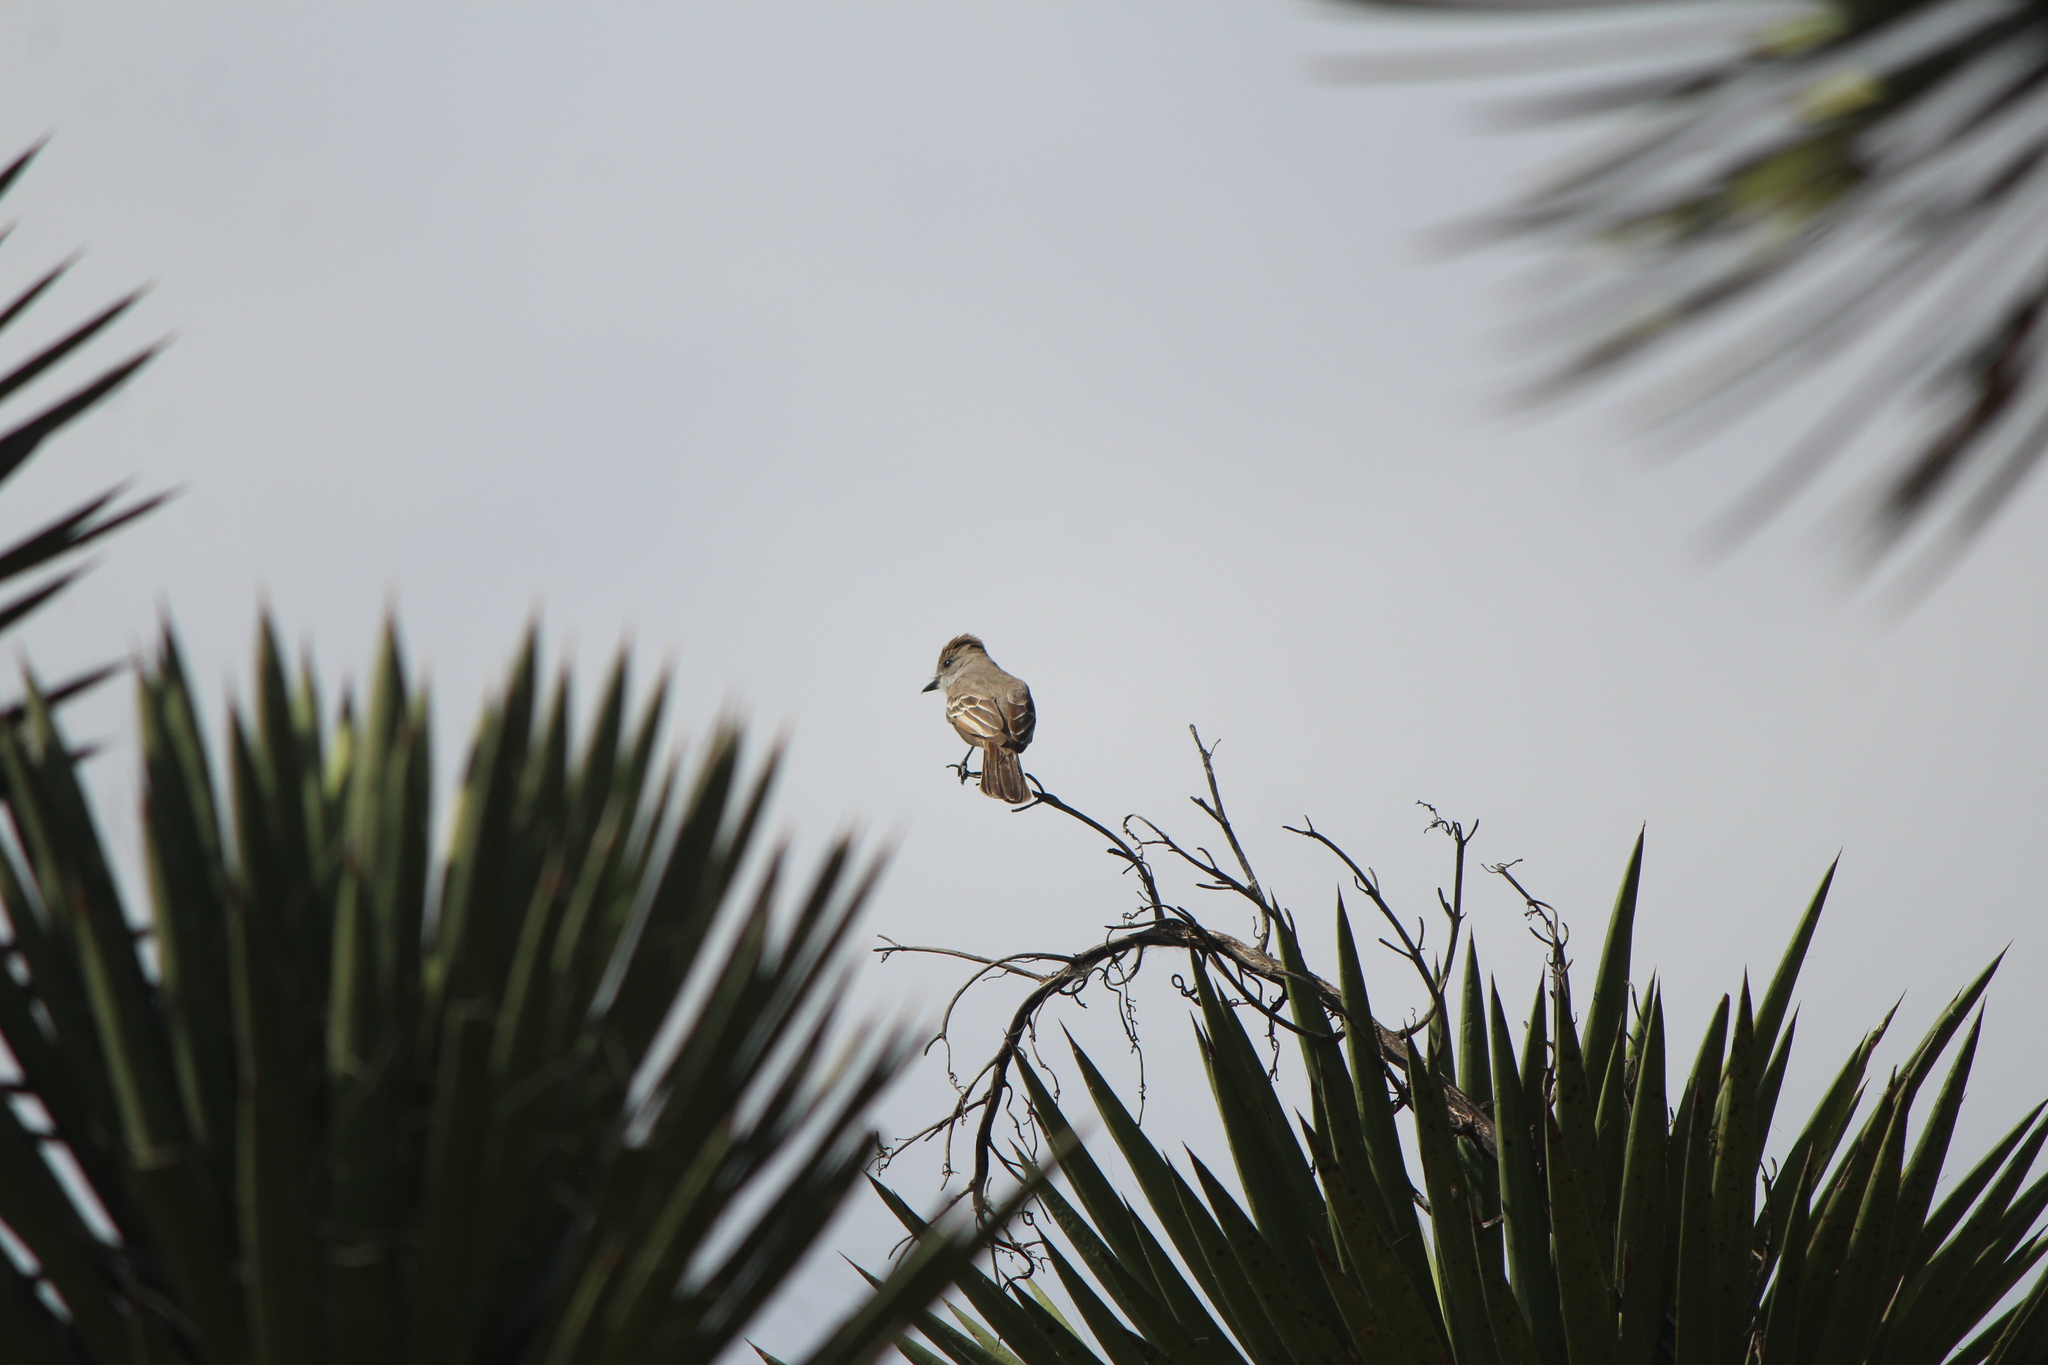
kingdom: Animalia
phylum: Chordata
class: Aves
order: Passeriformes
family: Tyrannidae
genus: Myiarchus
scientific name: Myiarchus cinerascens
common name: Ash-throated flycatcher
